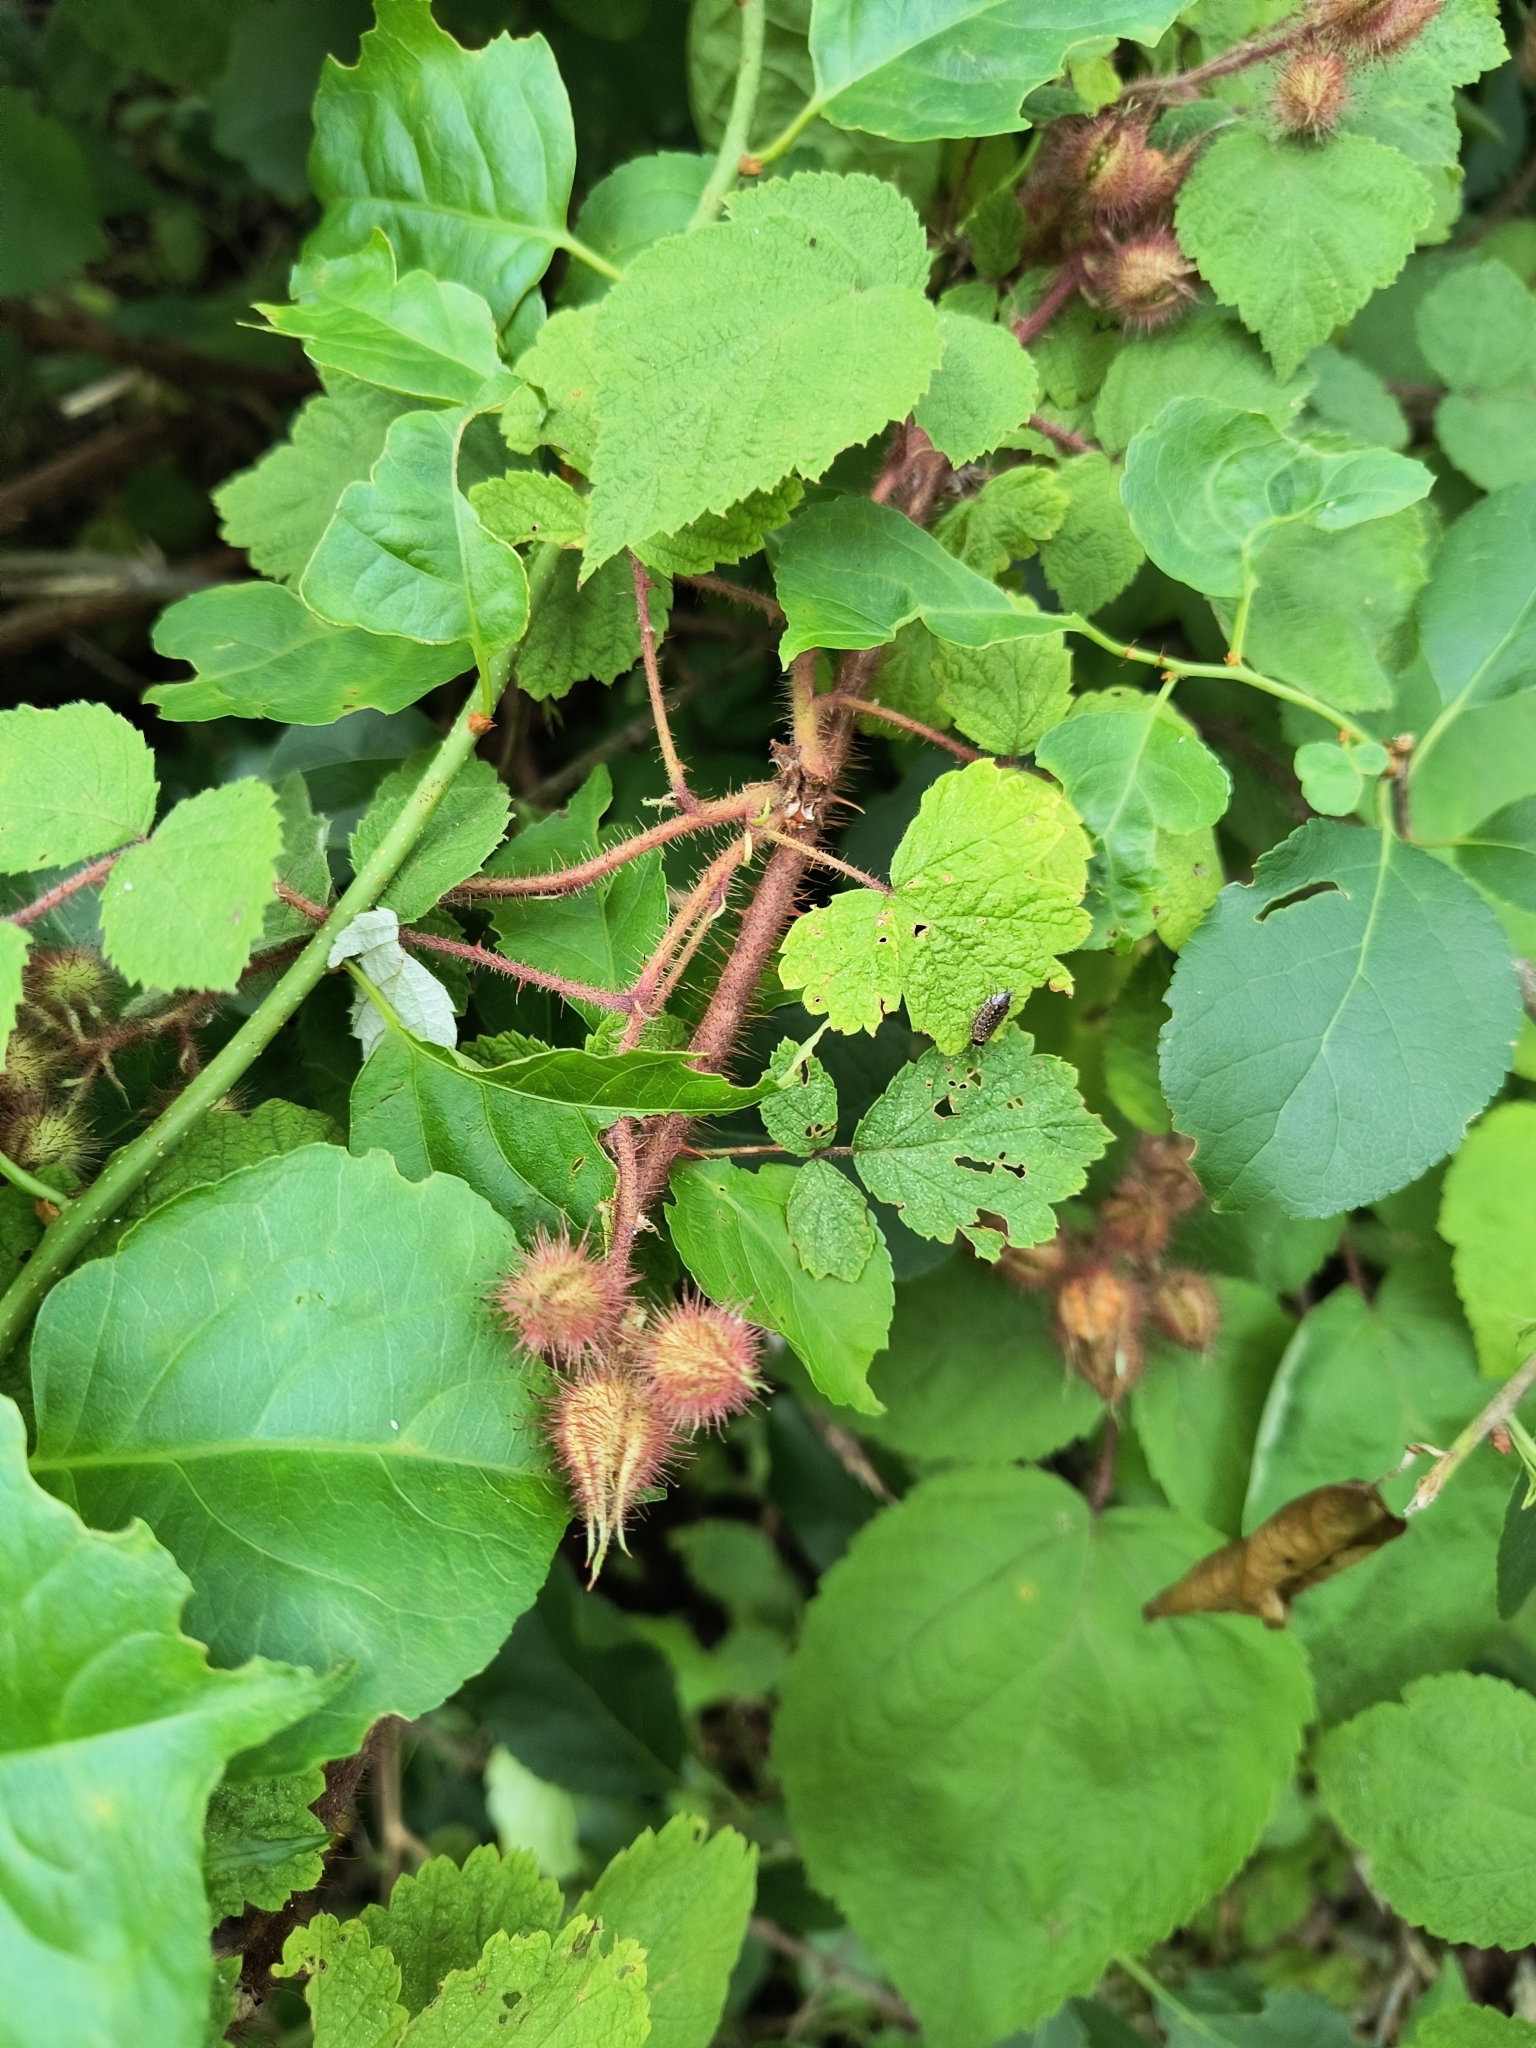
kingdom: Plantae
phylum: Tracheophyta
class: Magnoliopsida
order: Rosales
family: Rosaceae
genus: Rubus
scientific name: Rubus phoenicolasius
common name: Japanese wineberry
